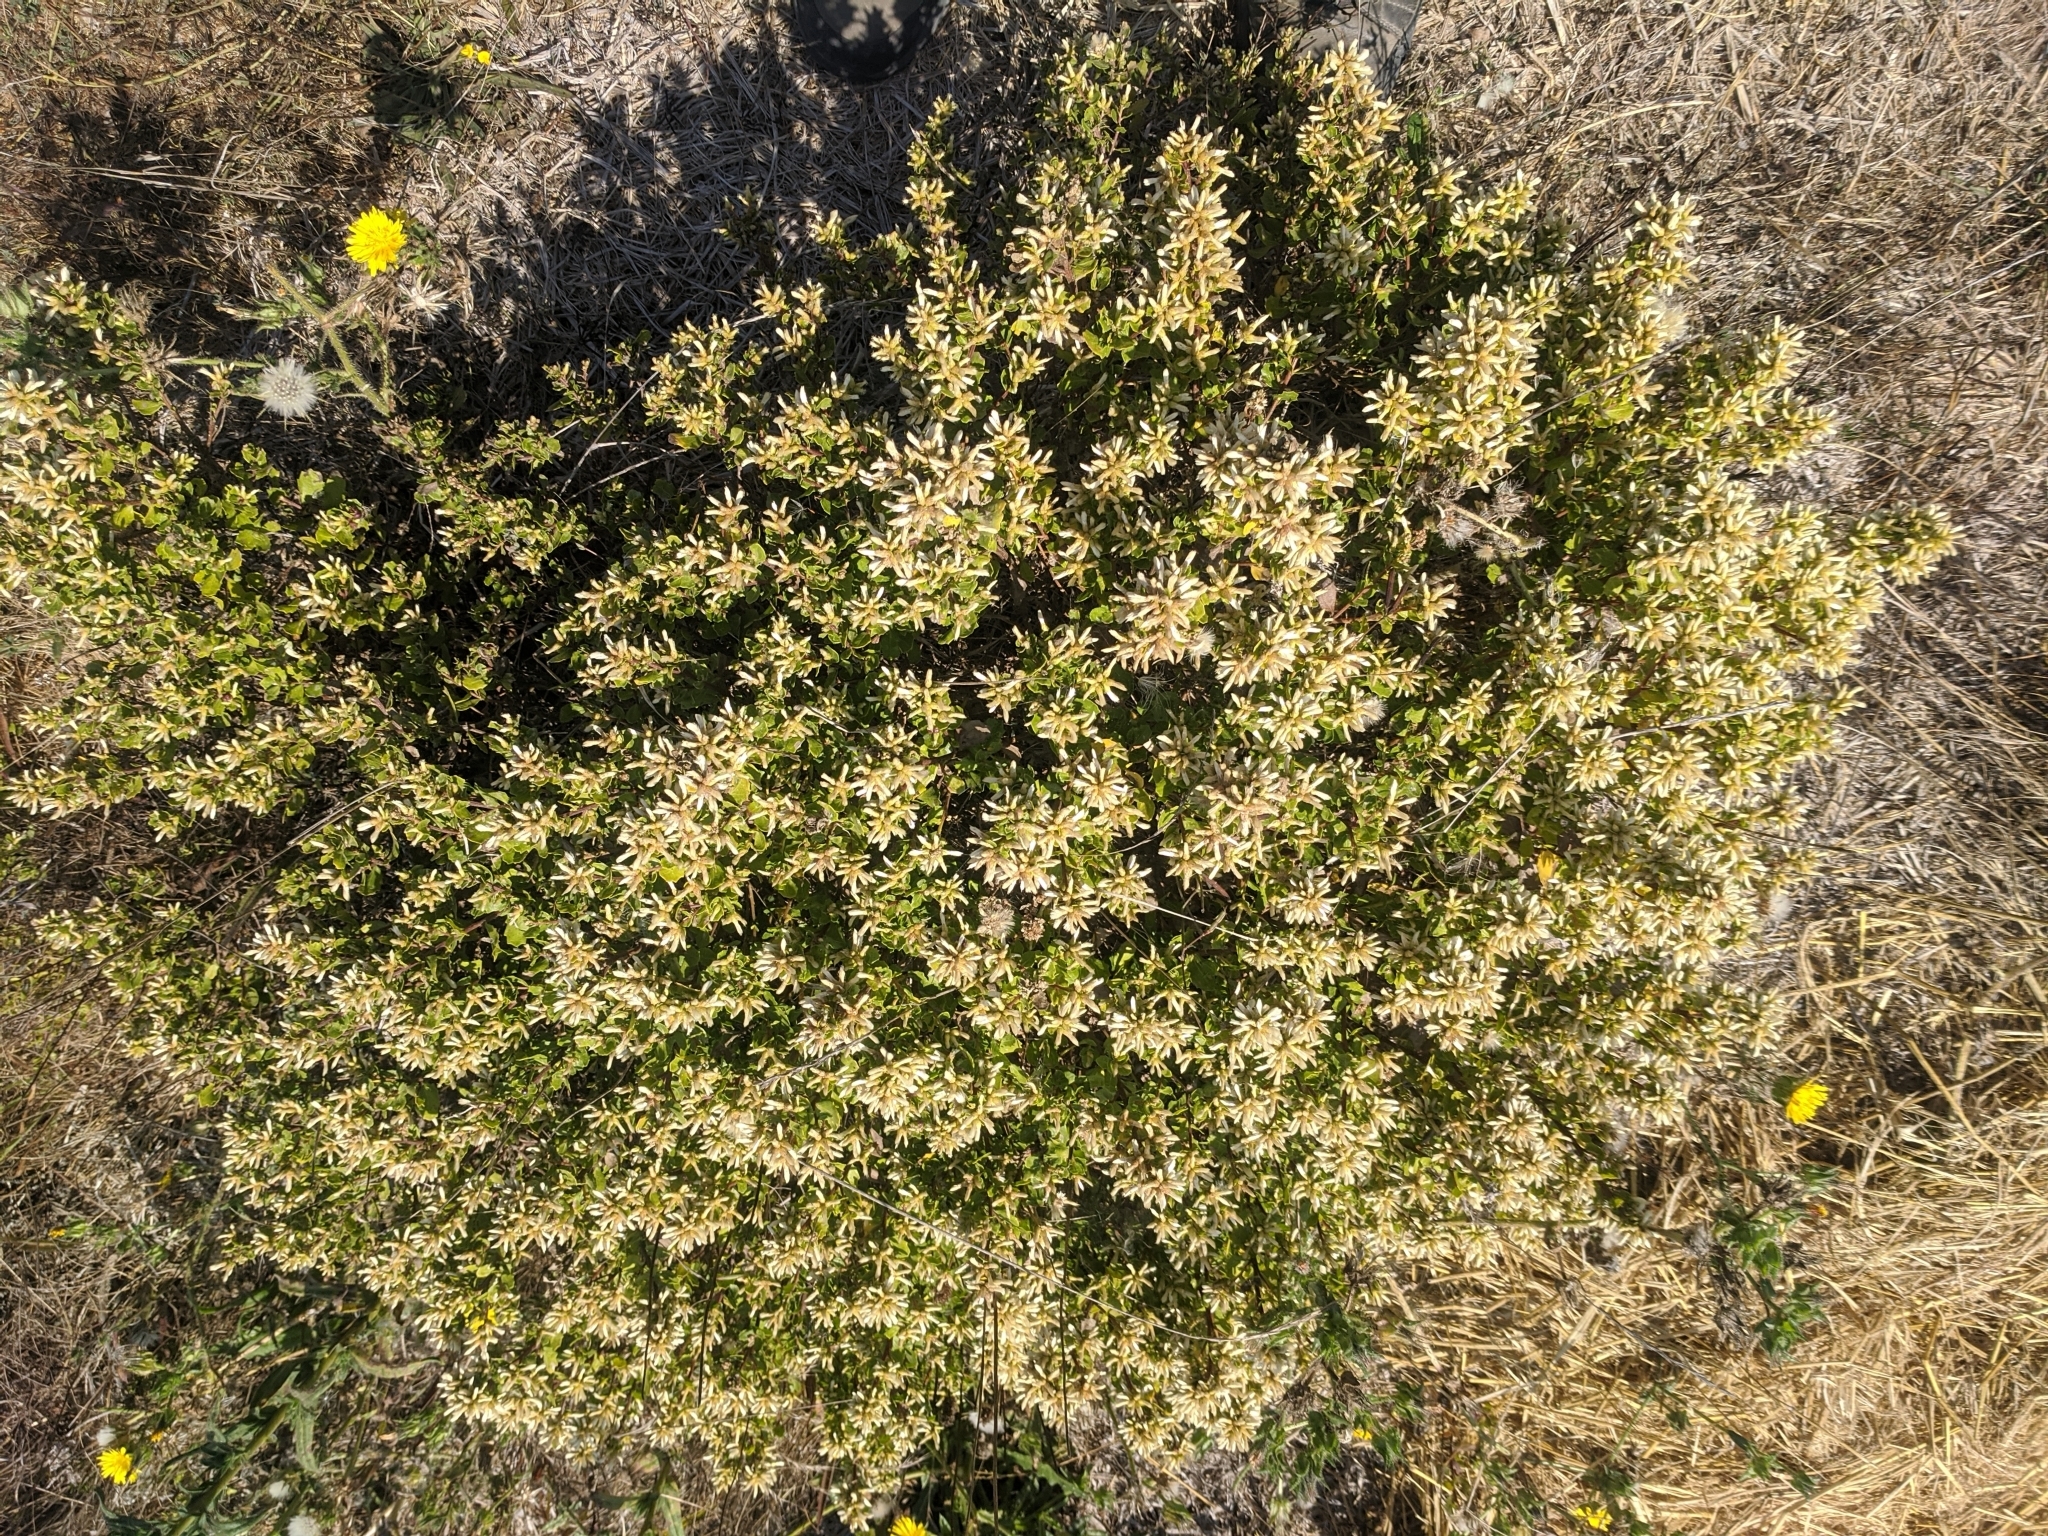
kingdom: Plantae
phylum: Tracheophyta
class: Magnoliopsida
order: Asterales
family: Asteraceae
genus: Baccharis
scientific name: Baccharis pilularis
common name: Coyotebrush
